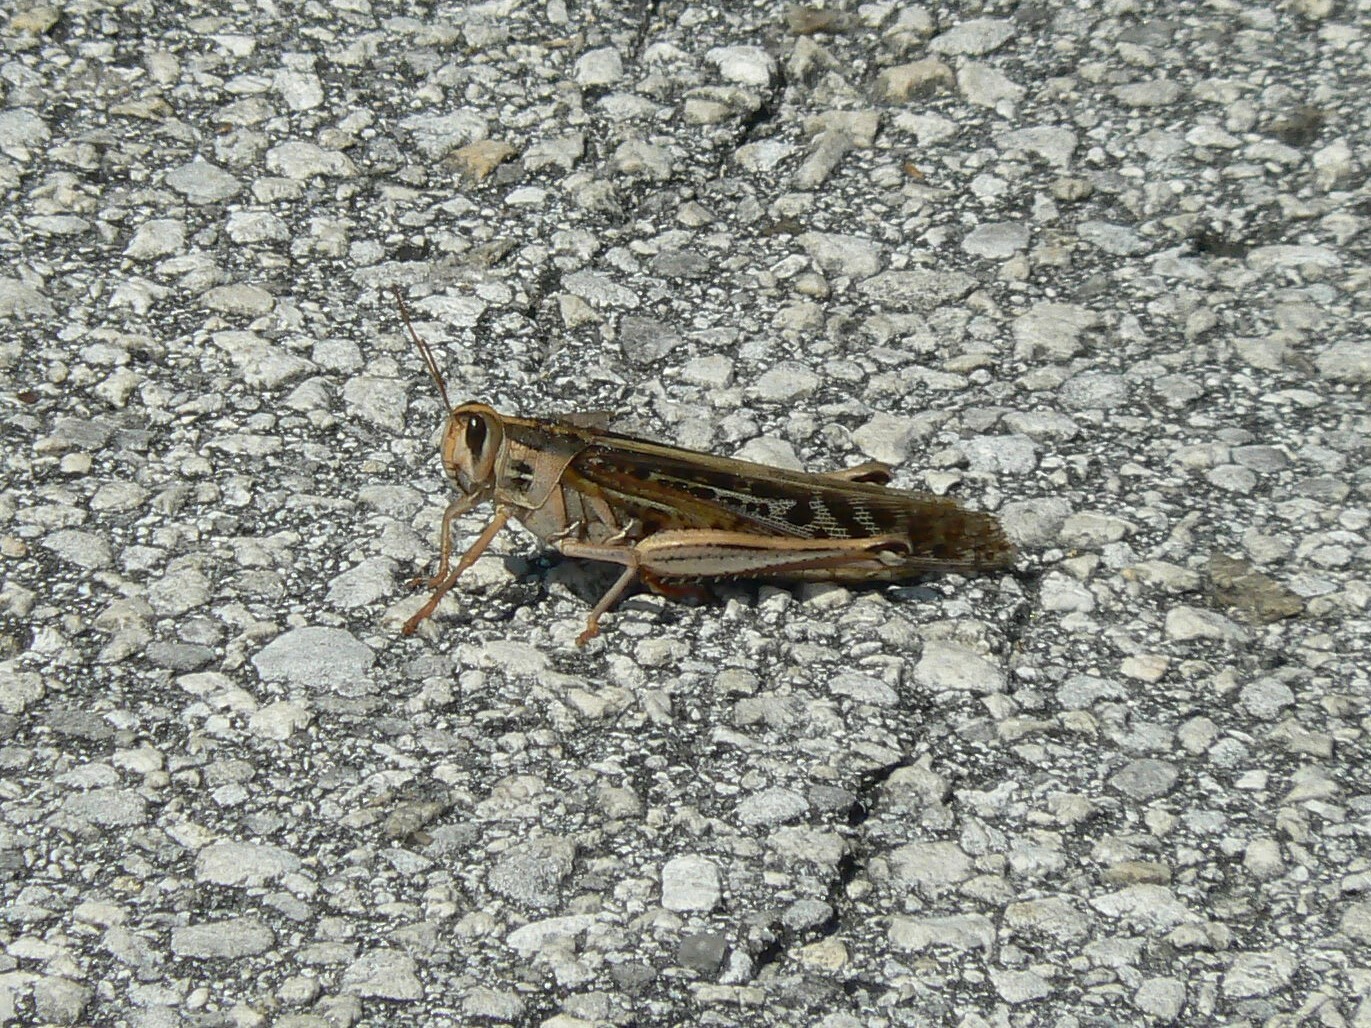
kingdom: Animalia
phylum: Arthropoda
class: Insecta
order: Orthoptera
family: Acrididae
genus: Schistocerca
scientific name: Schistocerca americana
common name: American bird locust
